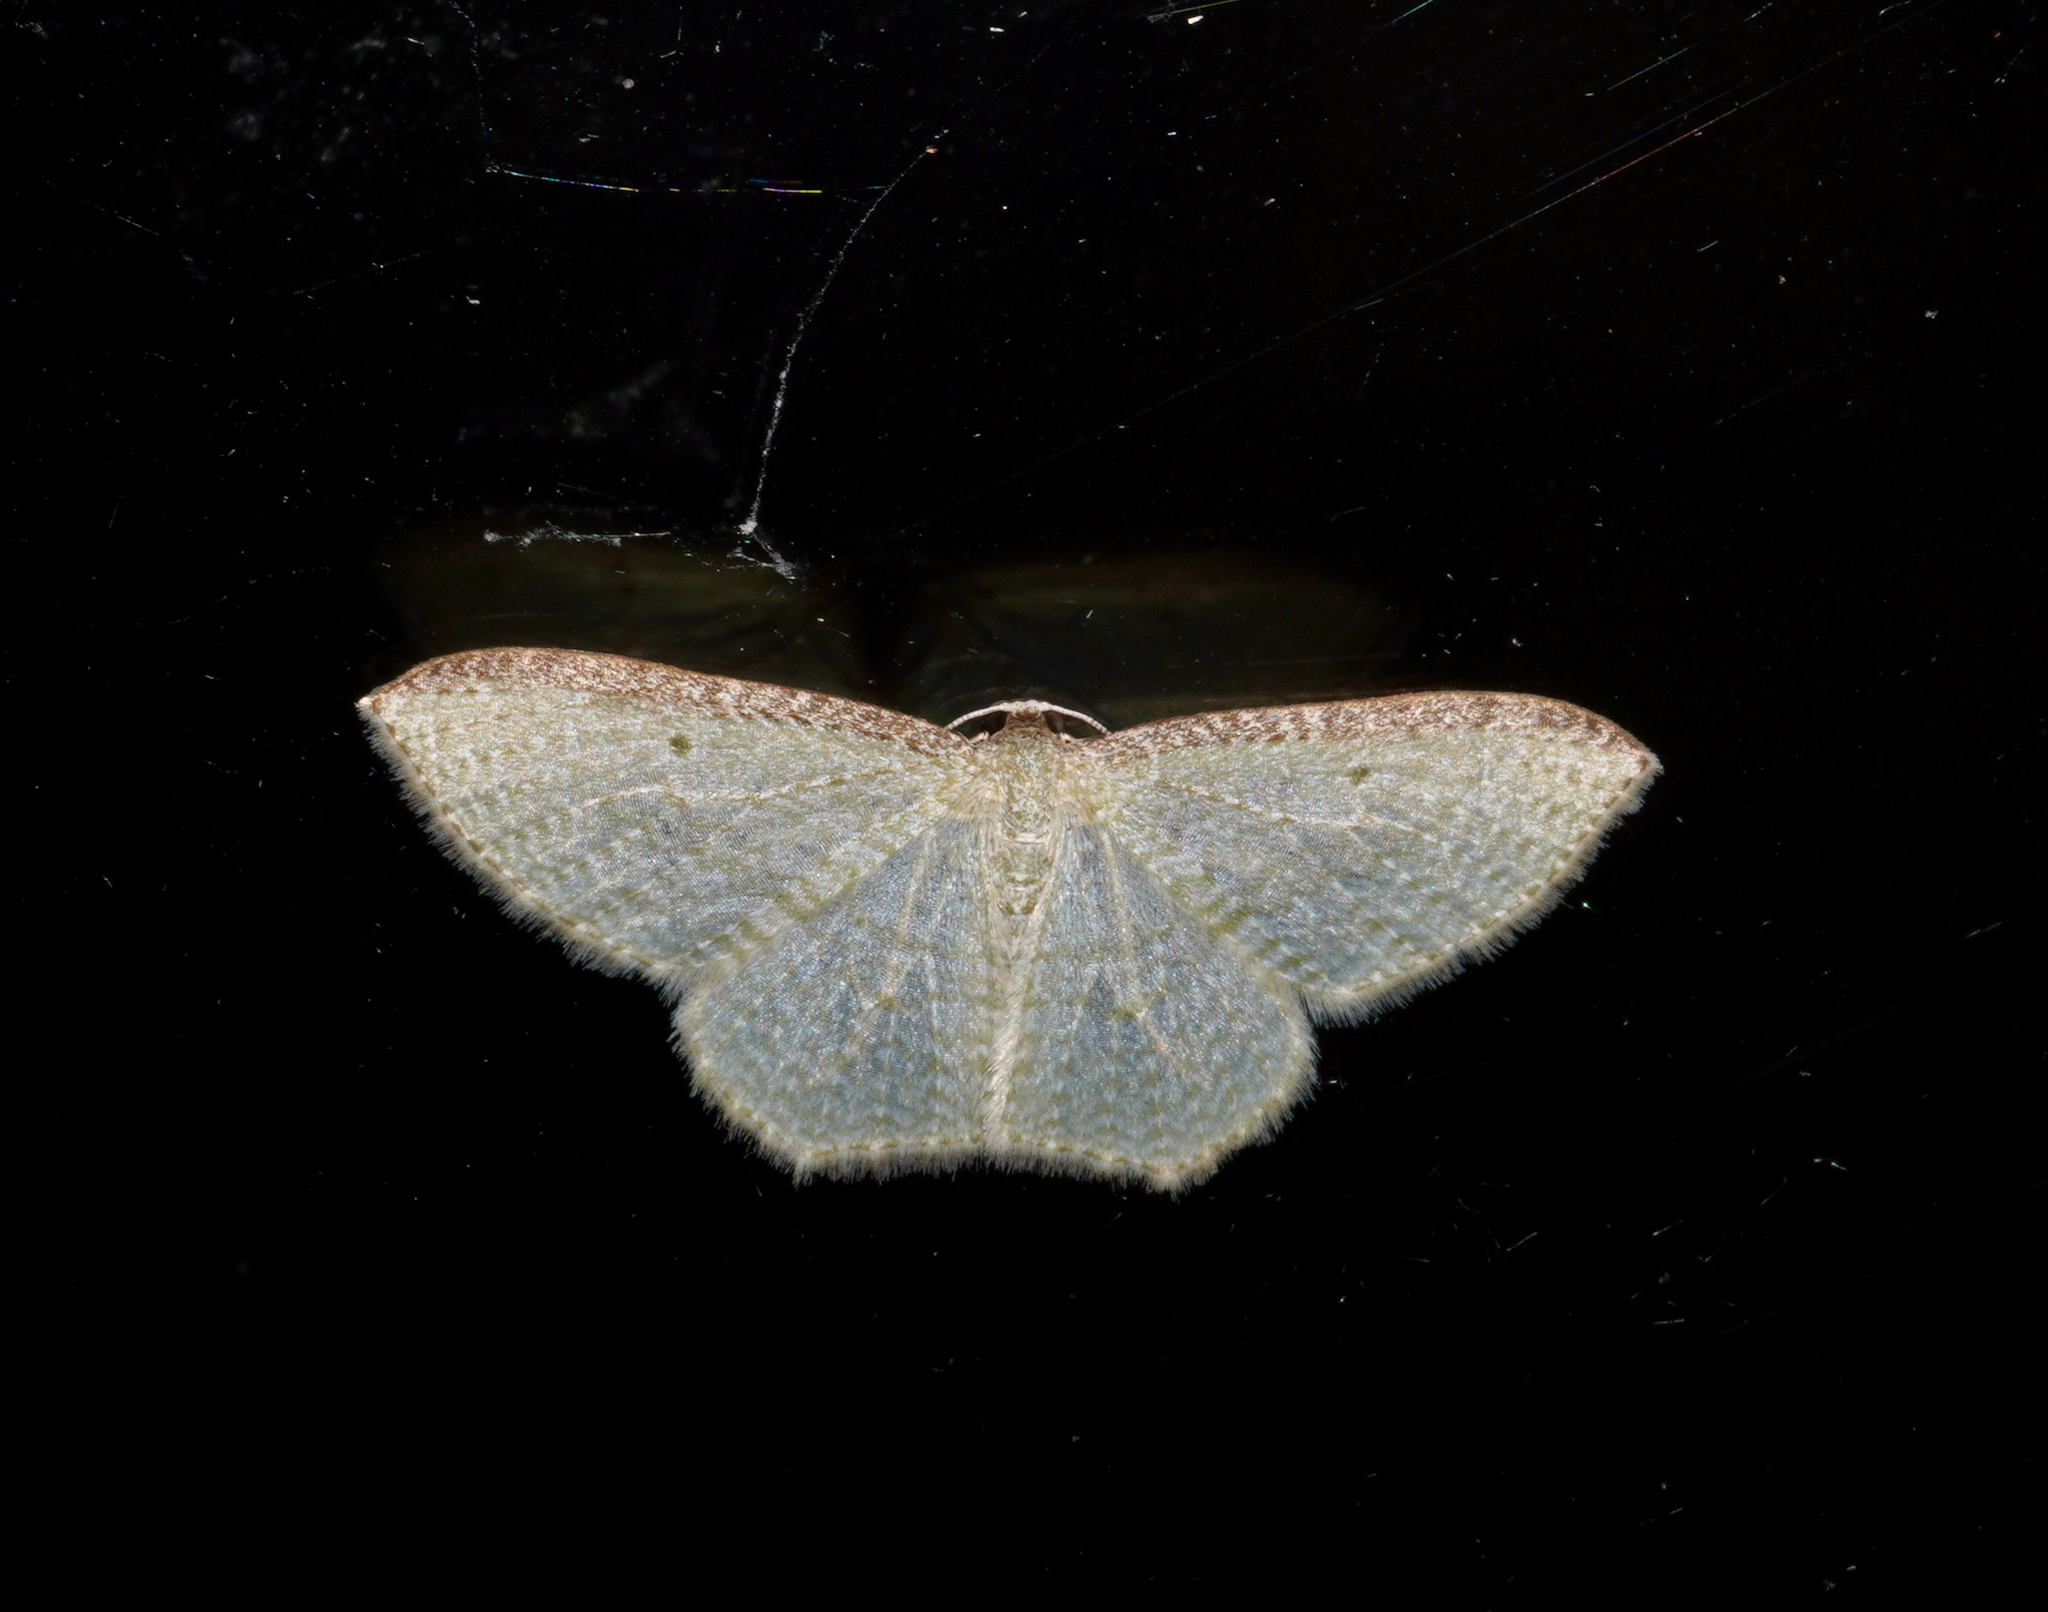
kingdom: Animalia
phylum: Arthropoda
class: Insecta
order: Lepidoptera
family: Geometridae
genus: Poecilasthena
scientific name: Poecilasthena pulchraria
